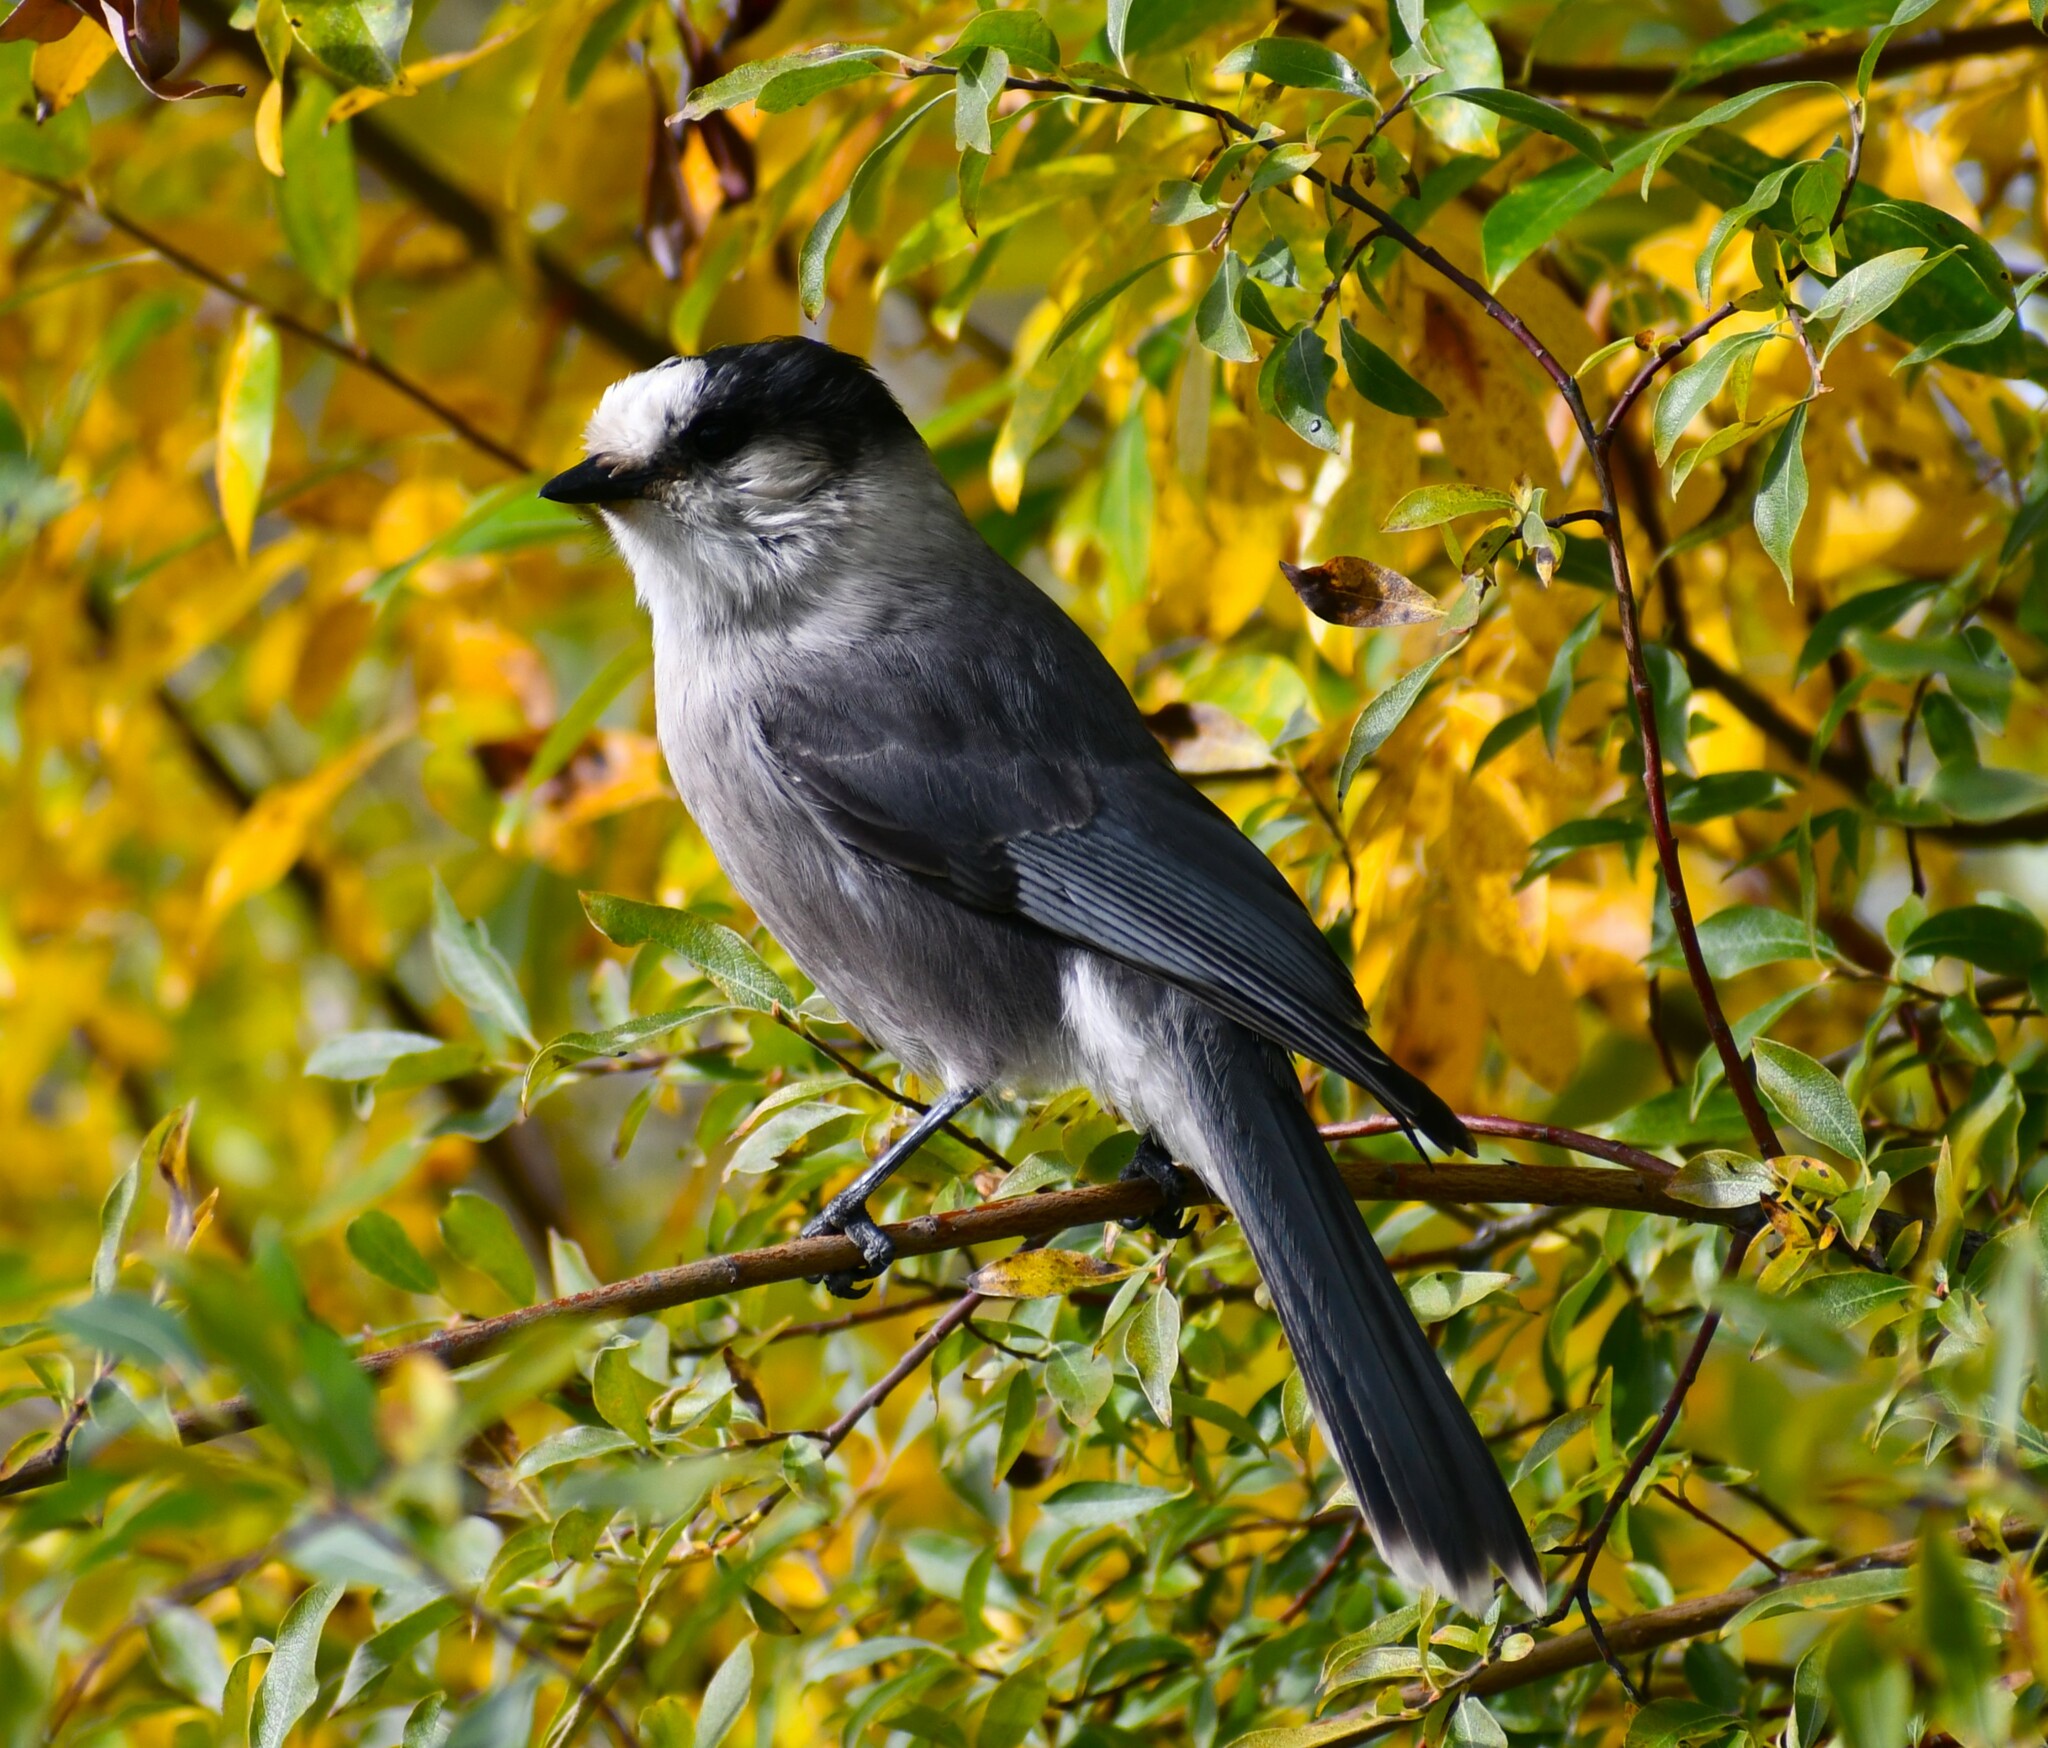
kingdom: Animalia
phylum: Chordata
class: Aves
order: Passeriformes
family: Corvidae
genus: Perisoreus
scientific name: Perisoreus canadensis
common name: Gray jay
